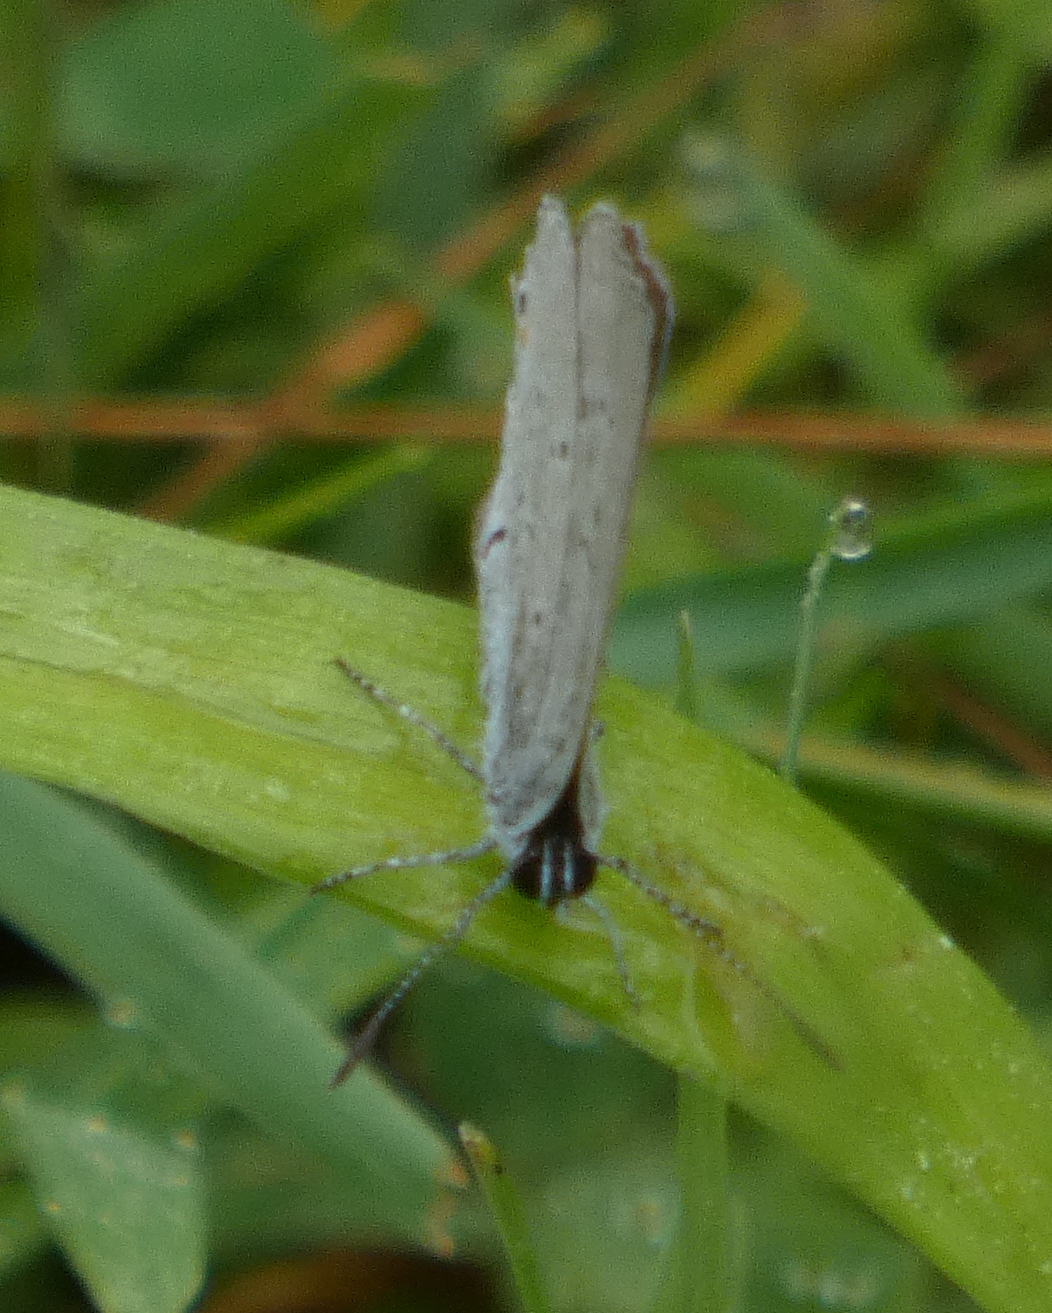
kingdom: Animalia
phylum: Arthropoda
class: Insecta
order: Lepidoptera
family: Lycaenidae
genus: Elkalyce
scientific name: Elkalyce comyntas
